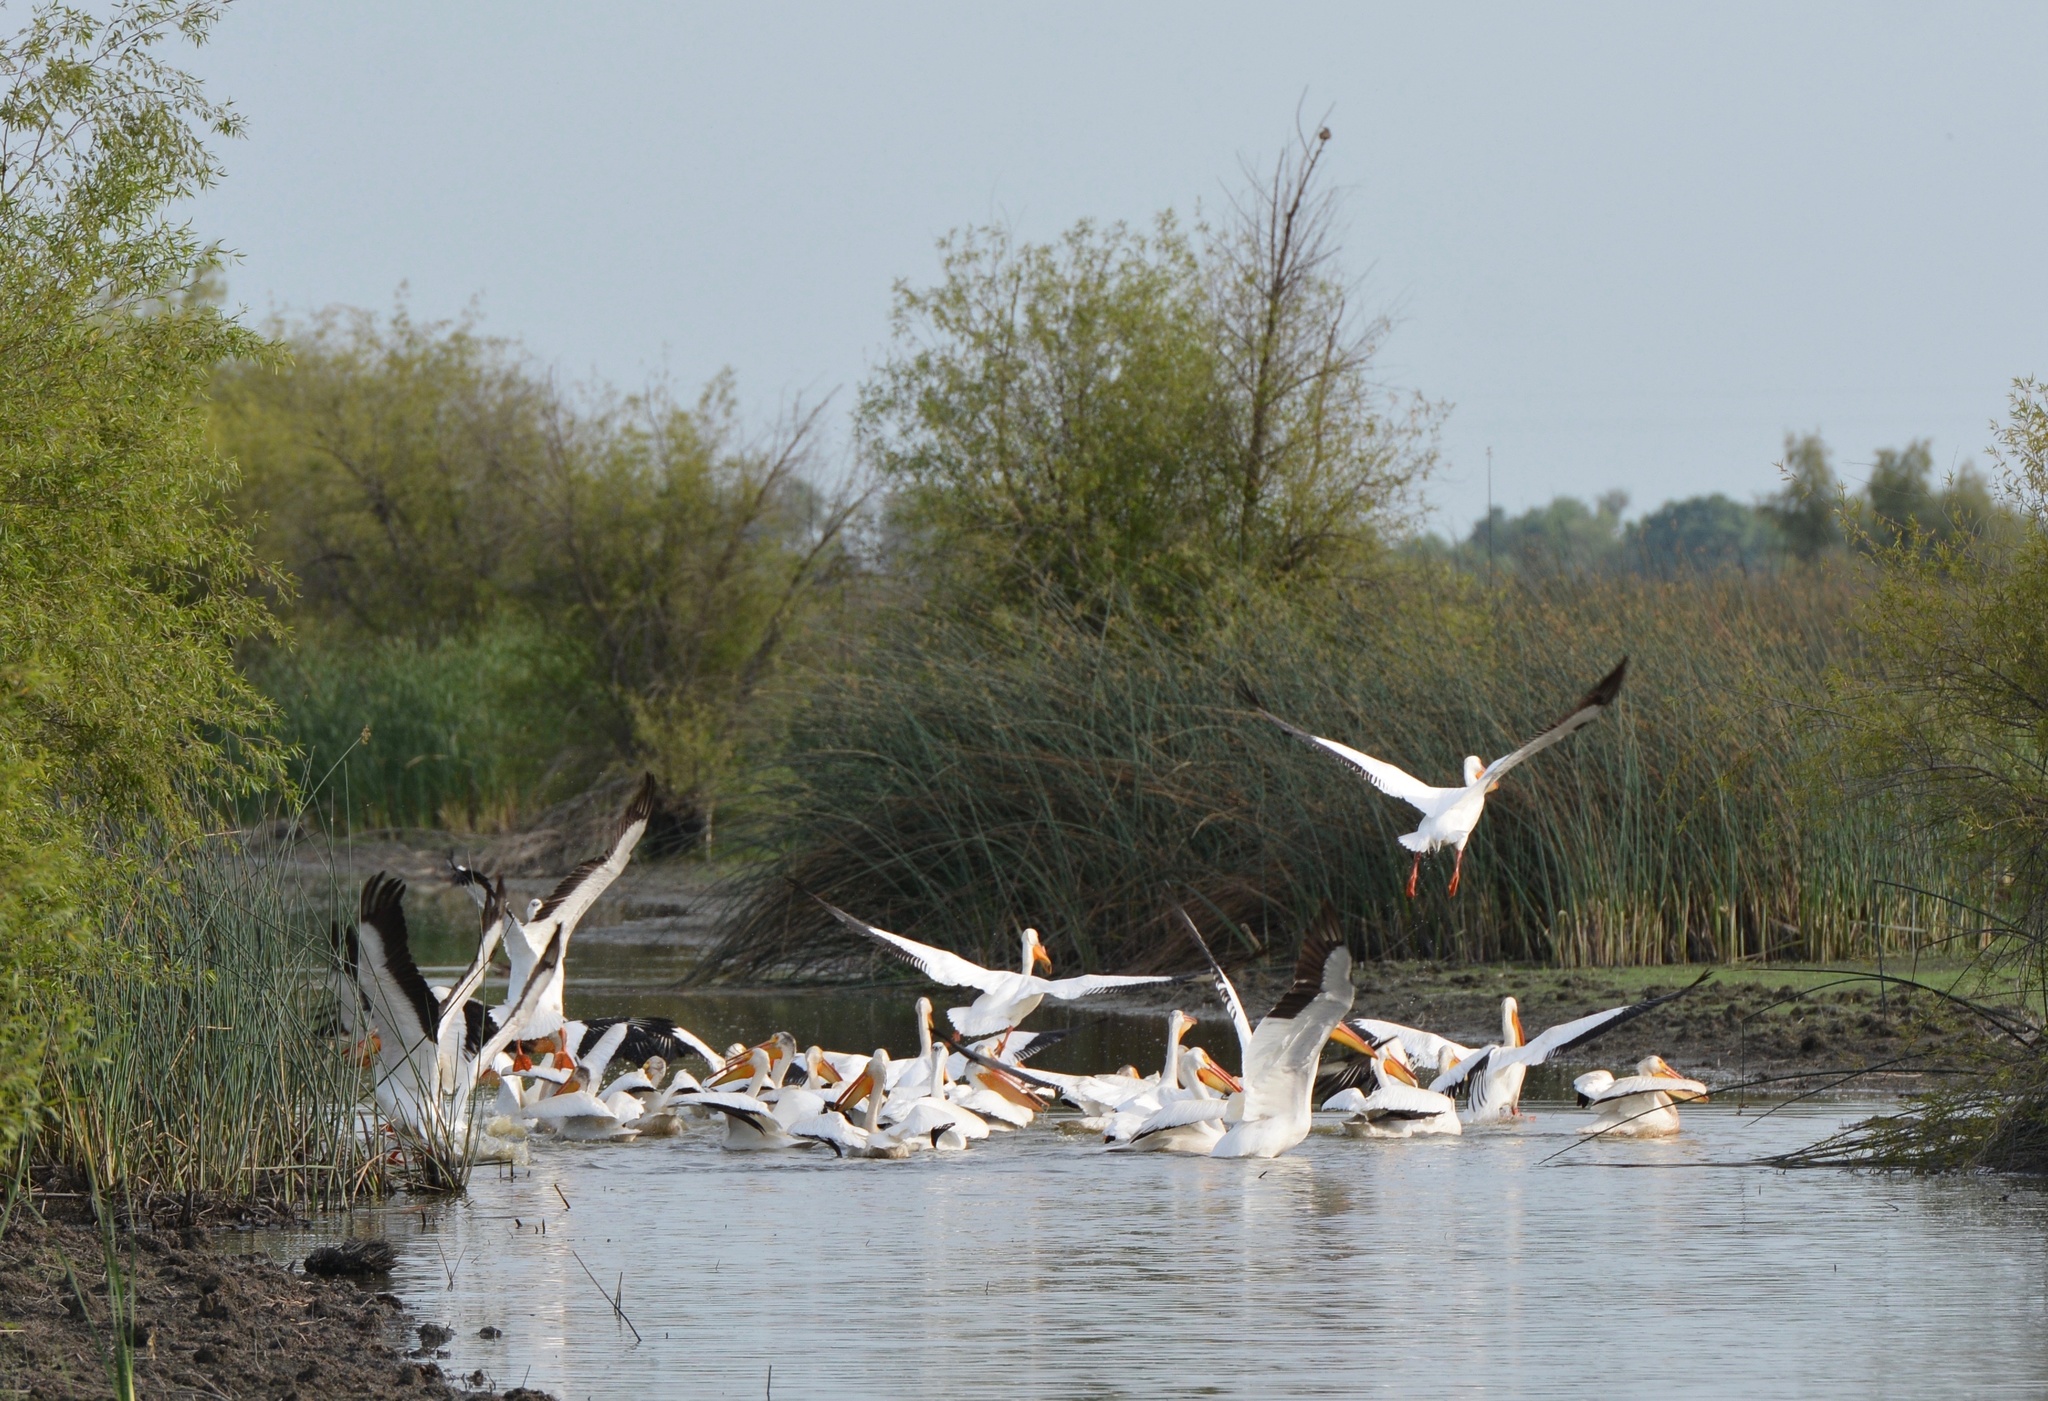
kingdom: Animalia
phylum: Chordata
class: Aves
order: Pelecaniformes
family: Pelecanidae
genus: Pelecanus
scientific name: Pelecanus erythrorhynchos
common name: American white pelican
